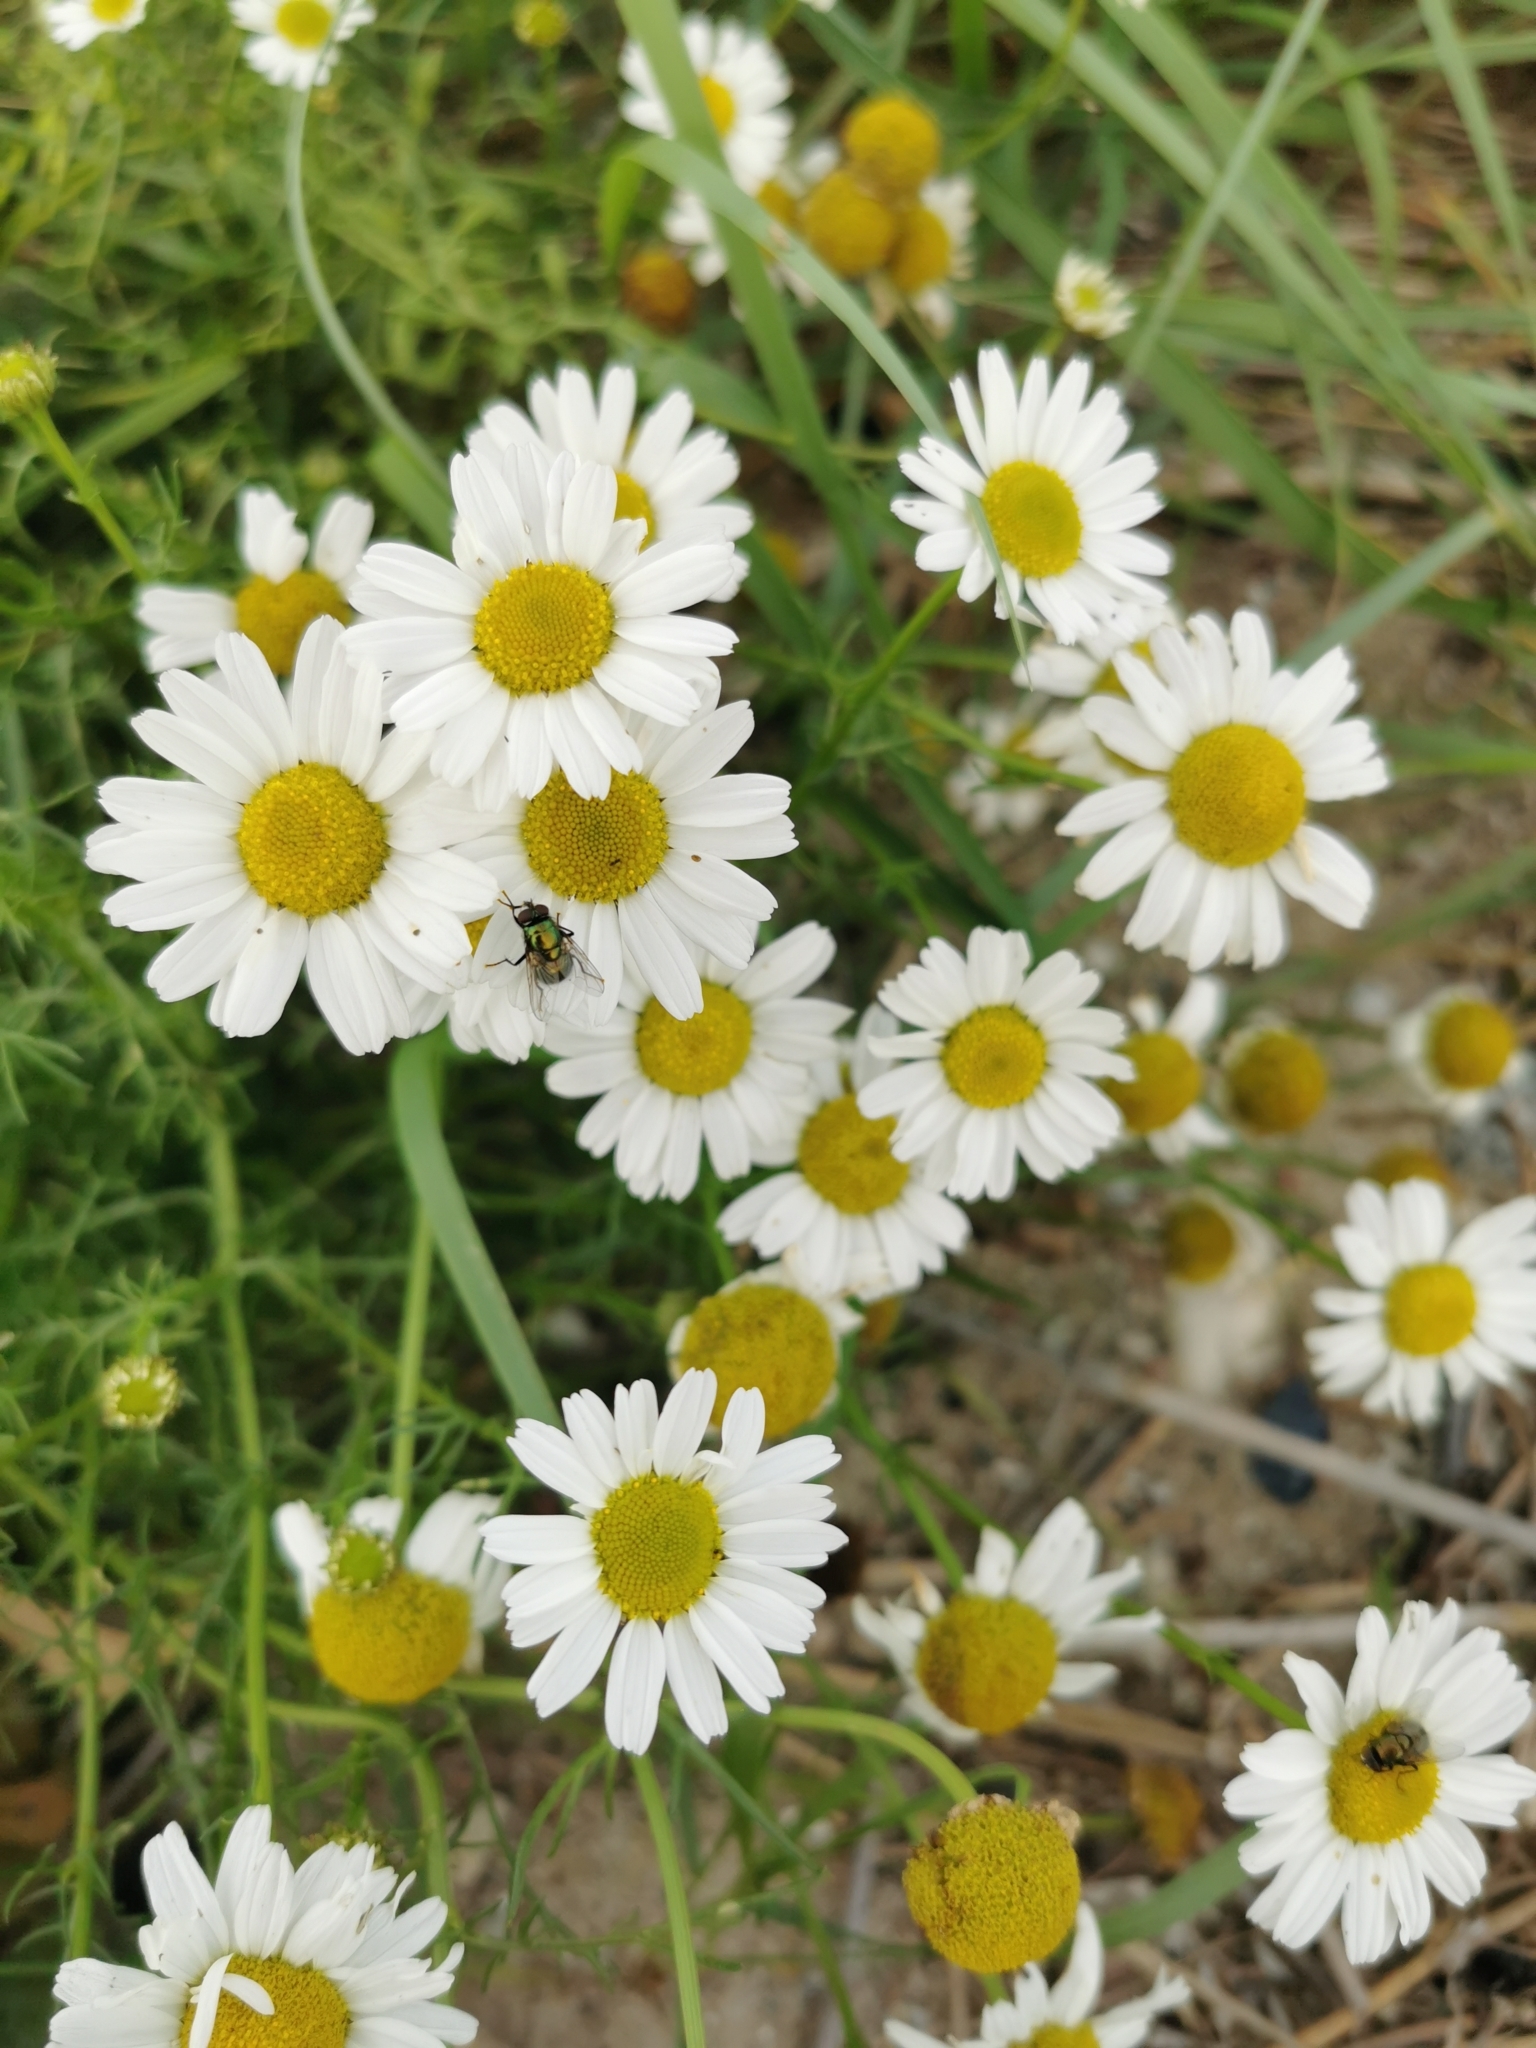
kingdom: Plantae
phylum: Tracheophyta
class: Magnoliopsida
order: Asterales
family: Asteraceae
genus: Tripleurospermum
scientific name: Tripleurospermum maritimum
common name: Sea mayweed
